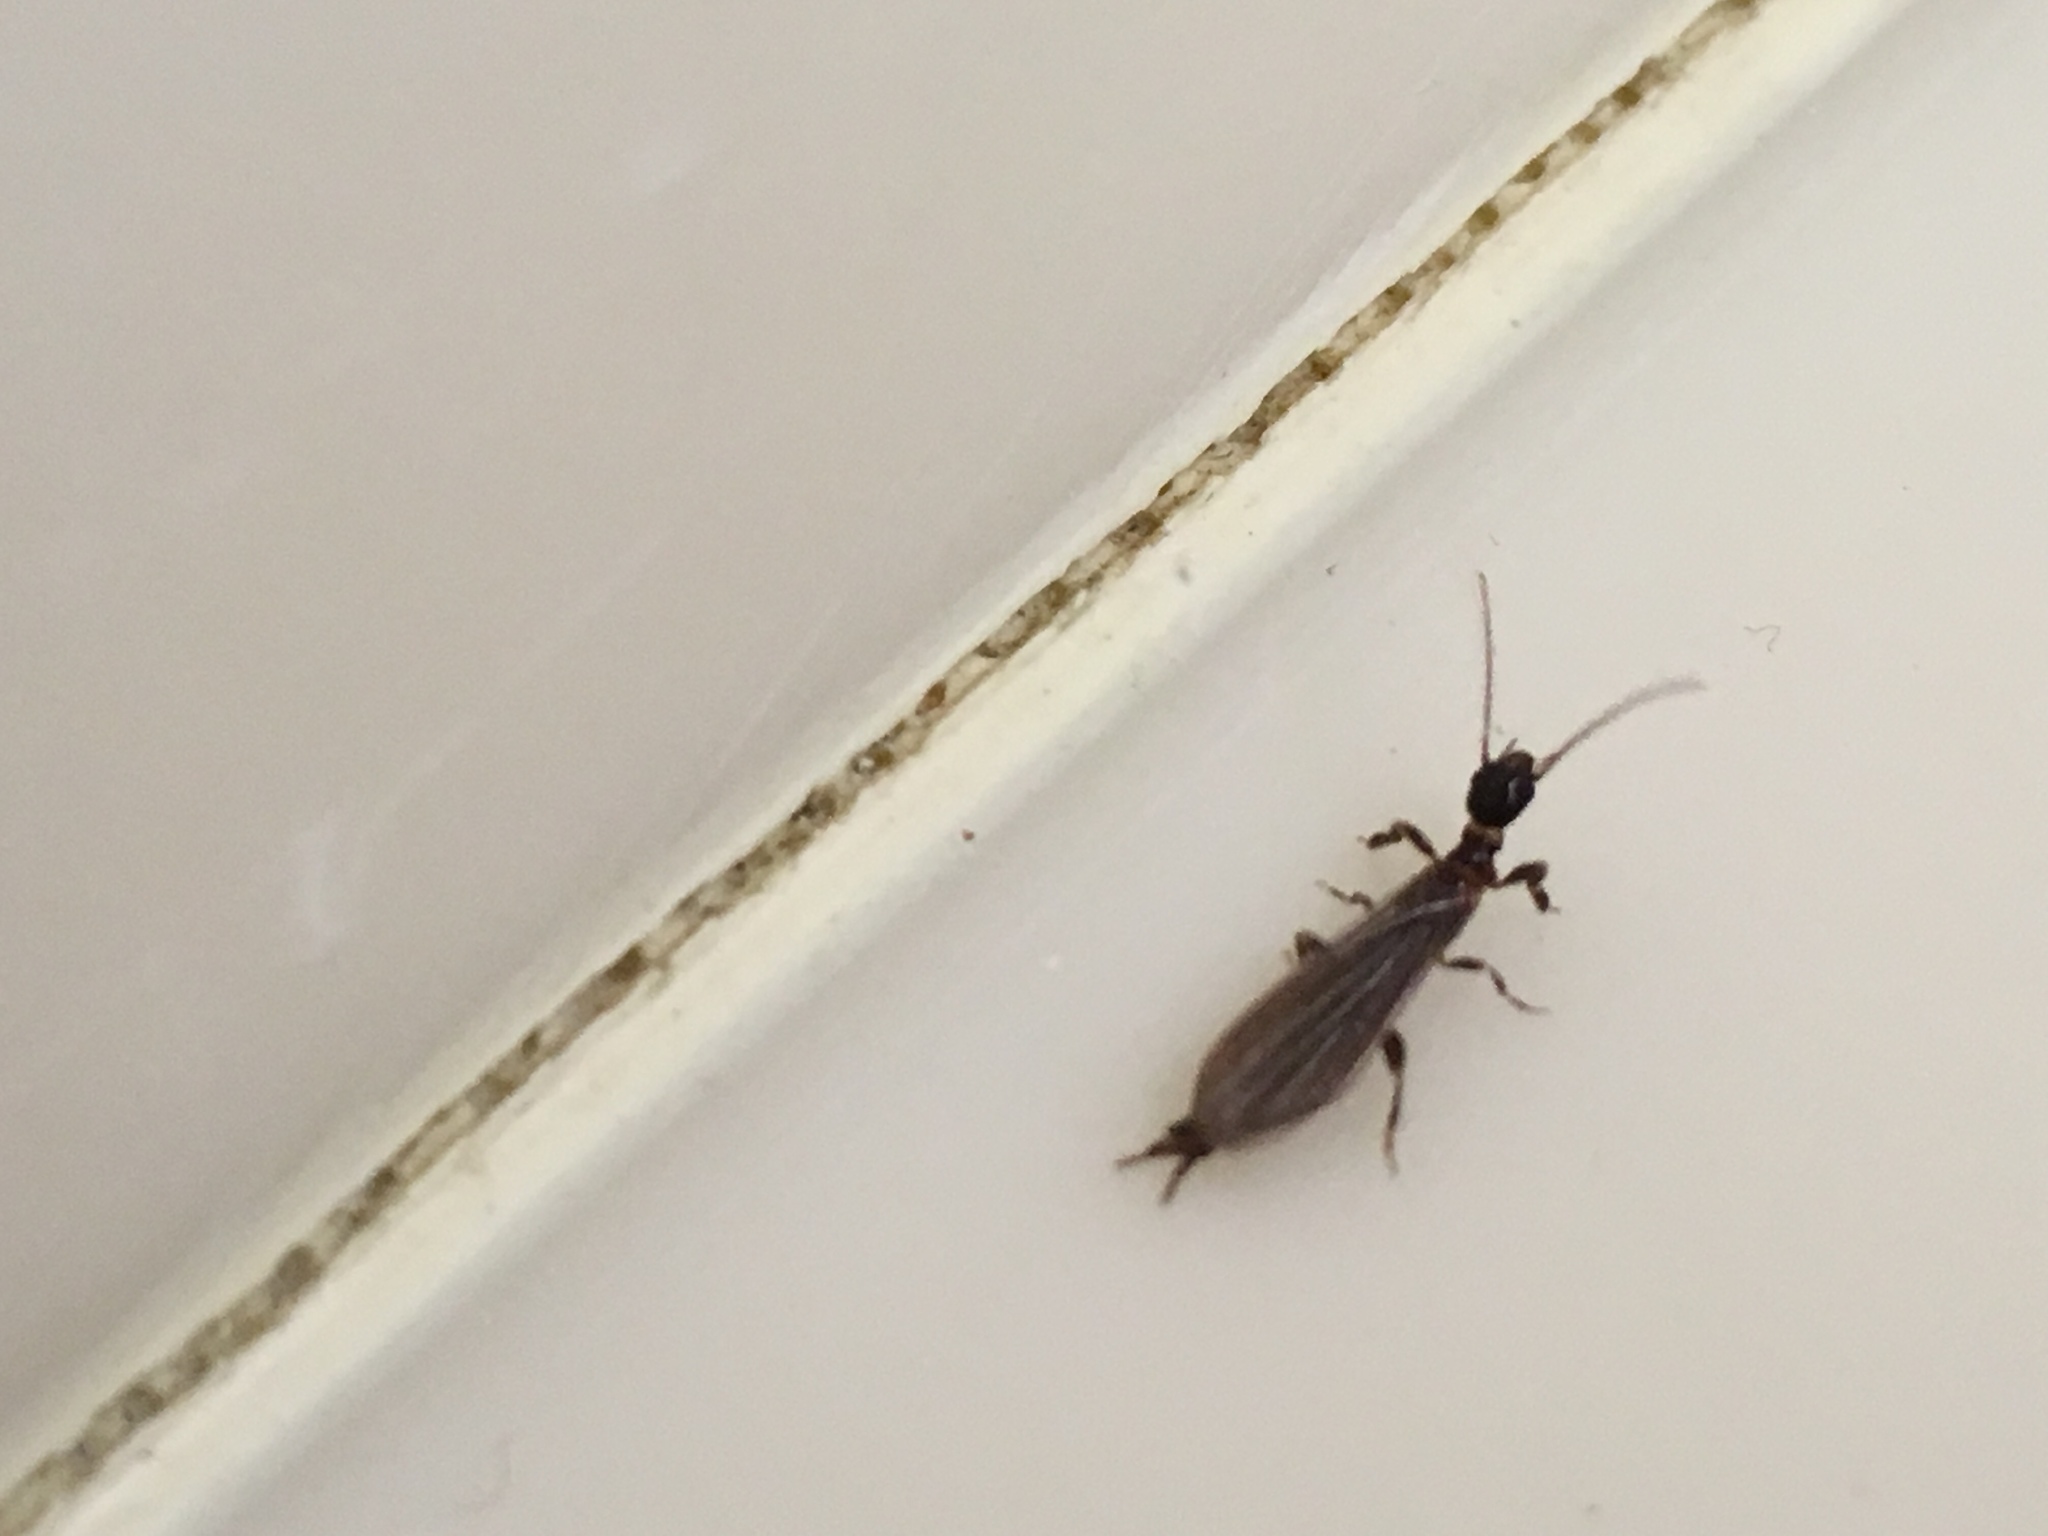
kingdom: Animalia
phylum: Arthropoda
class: Insecta
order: Embioptera
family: Oligotomidae
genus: Oligotoma
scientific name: Oligotoma nigra
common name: Black webspinner
